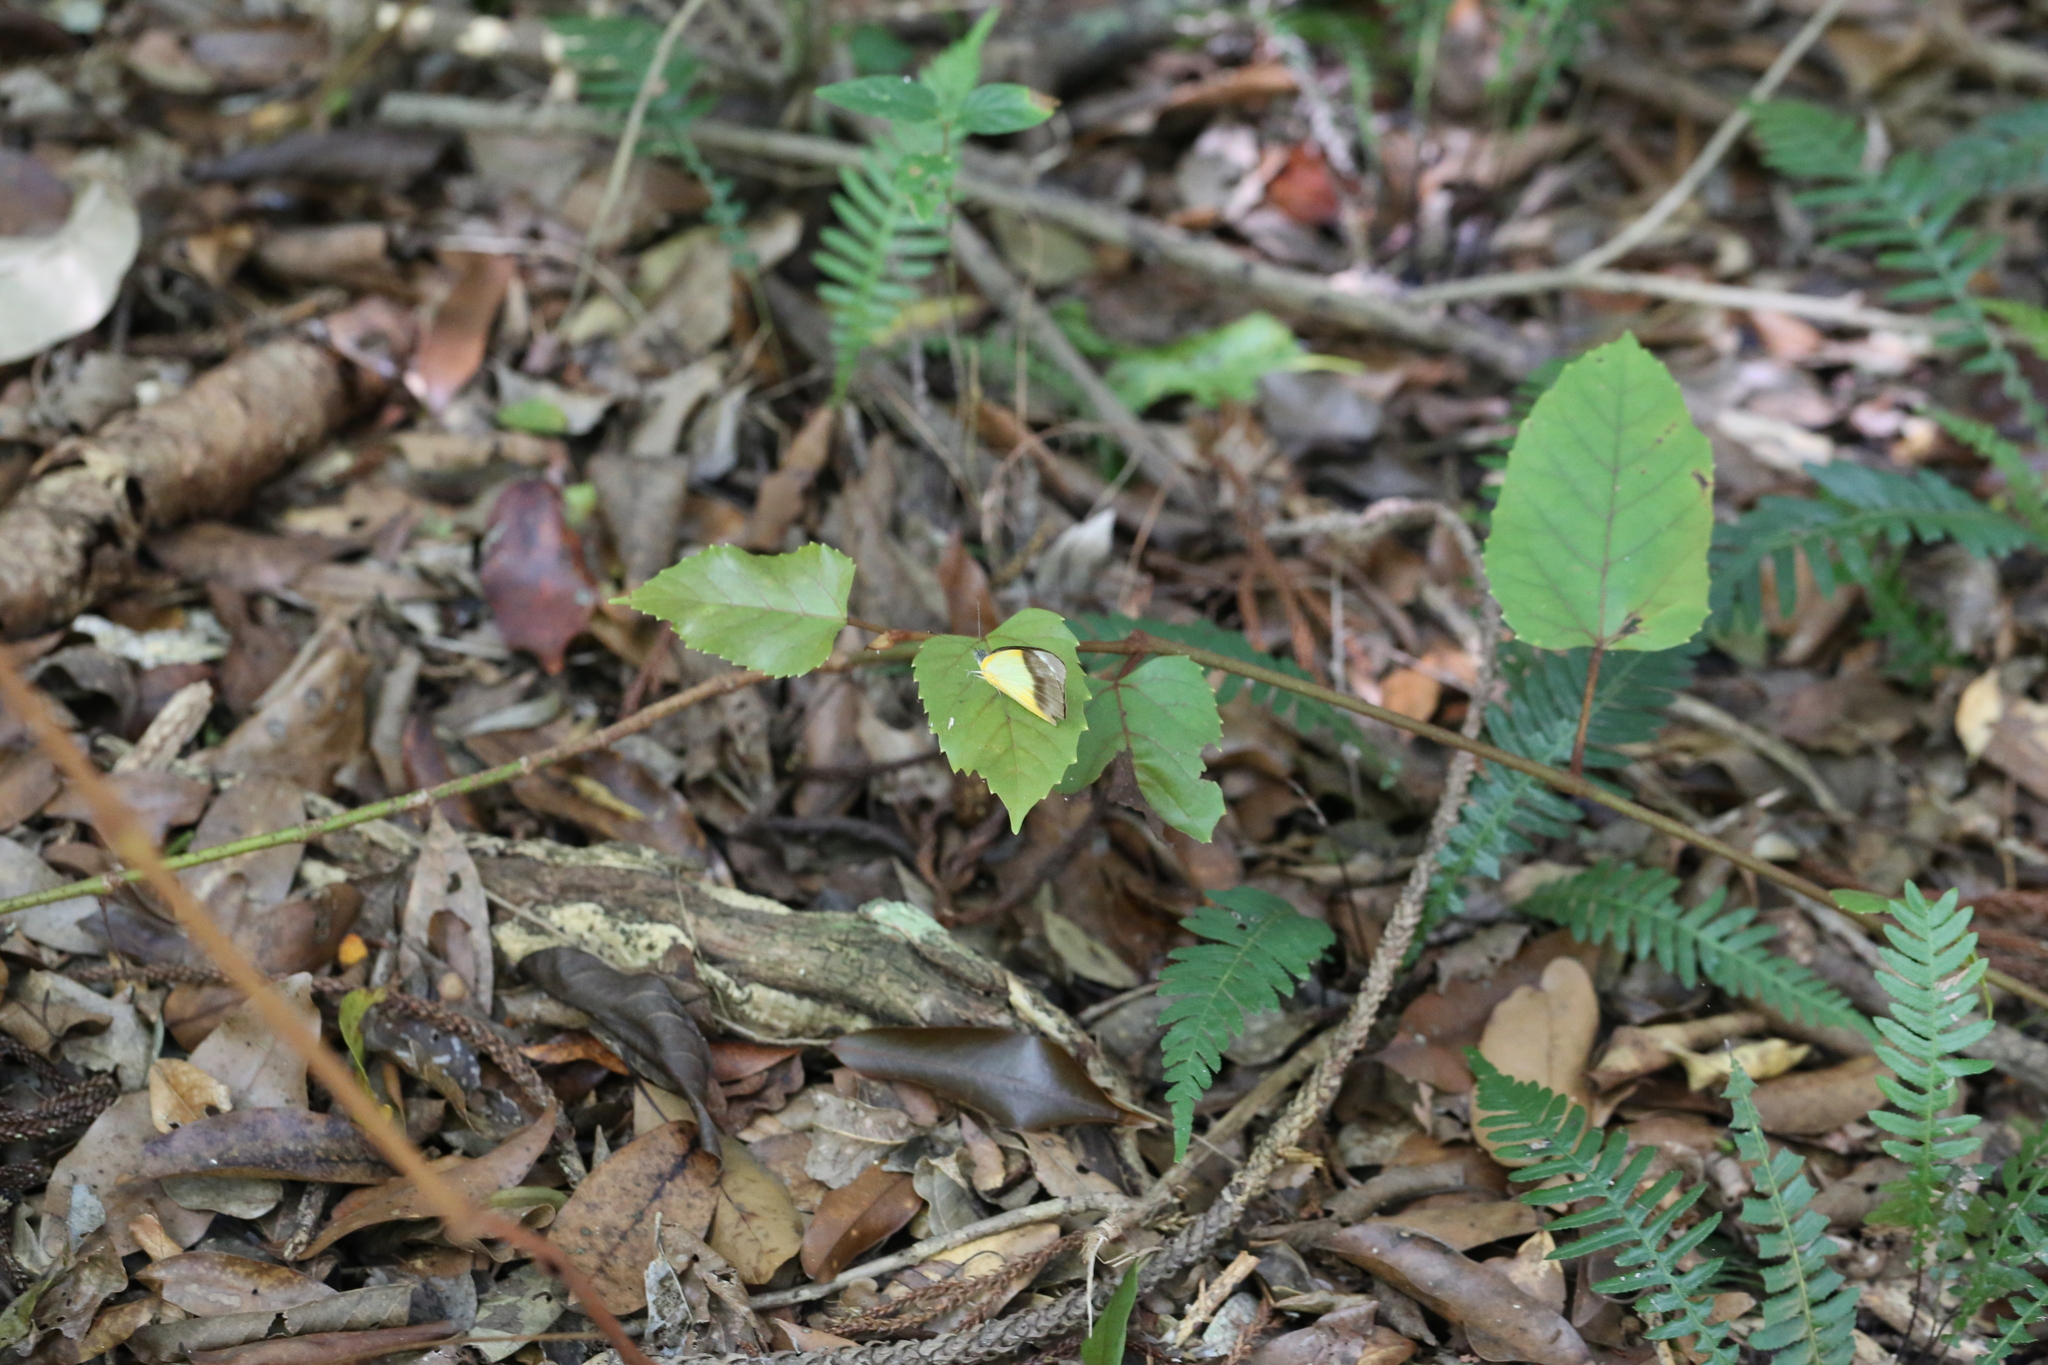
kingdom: Animalia
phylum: Arthropoda
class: Insecta
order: Lepidoptera
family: Pieridae
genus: Appias
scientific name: Appias paulina
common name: Ceylon lesser albatross
